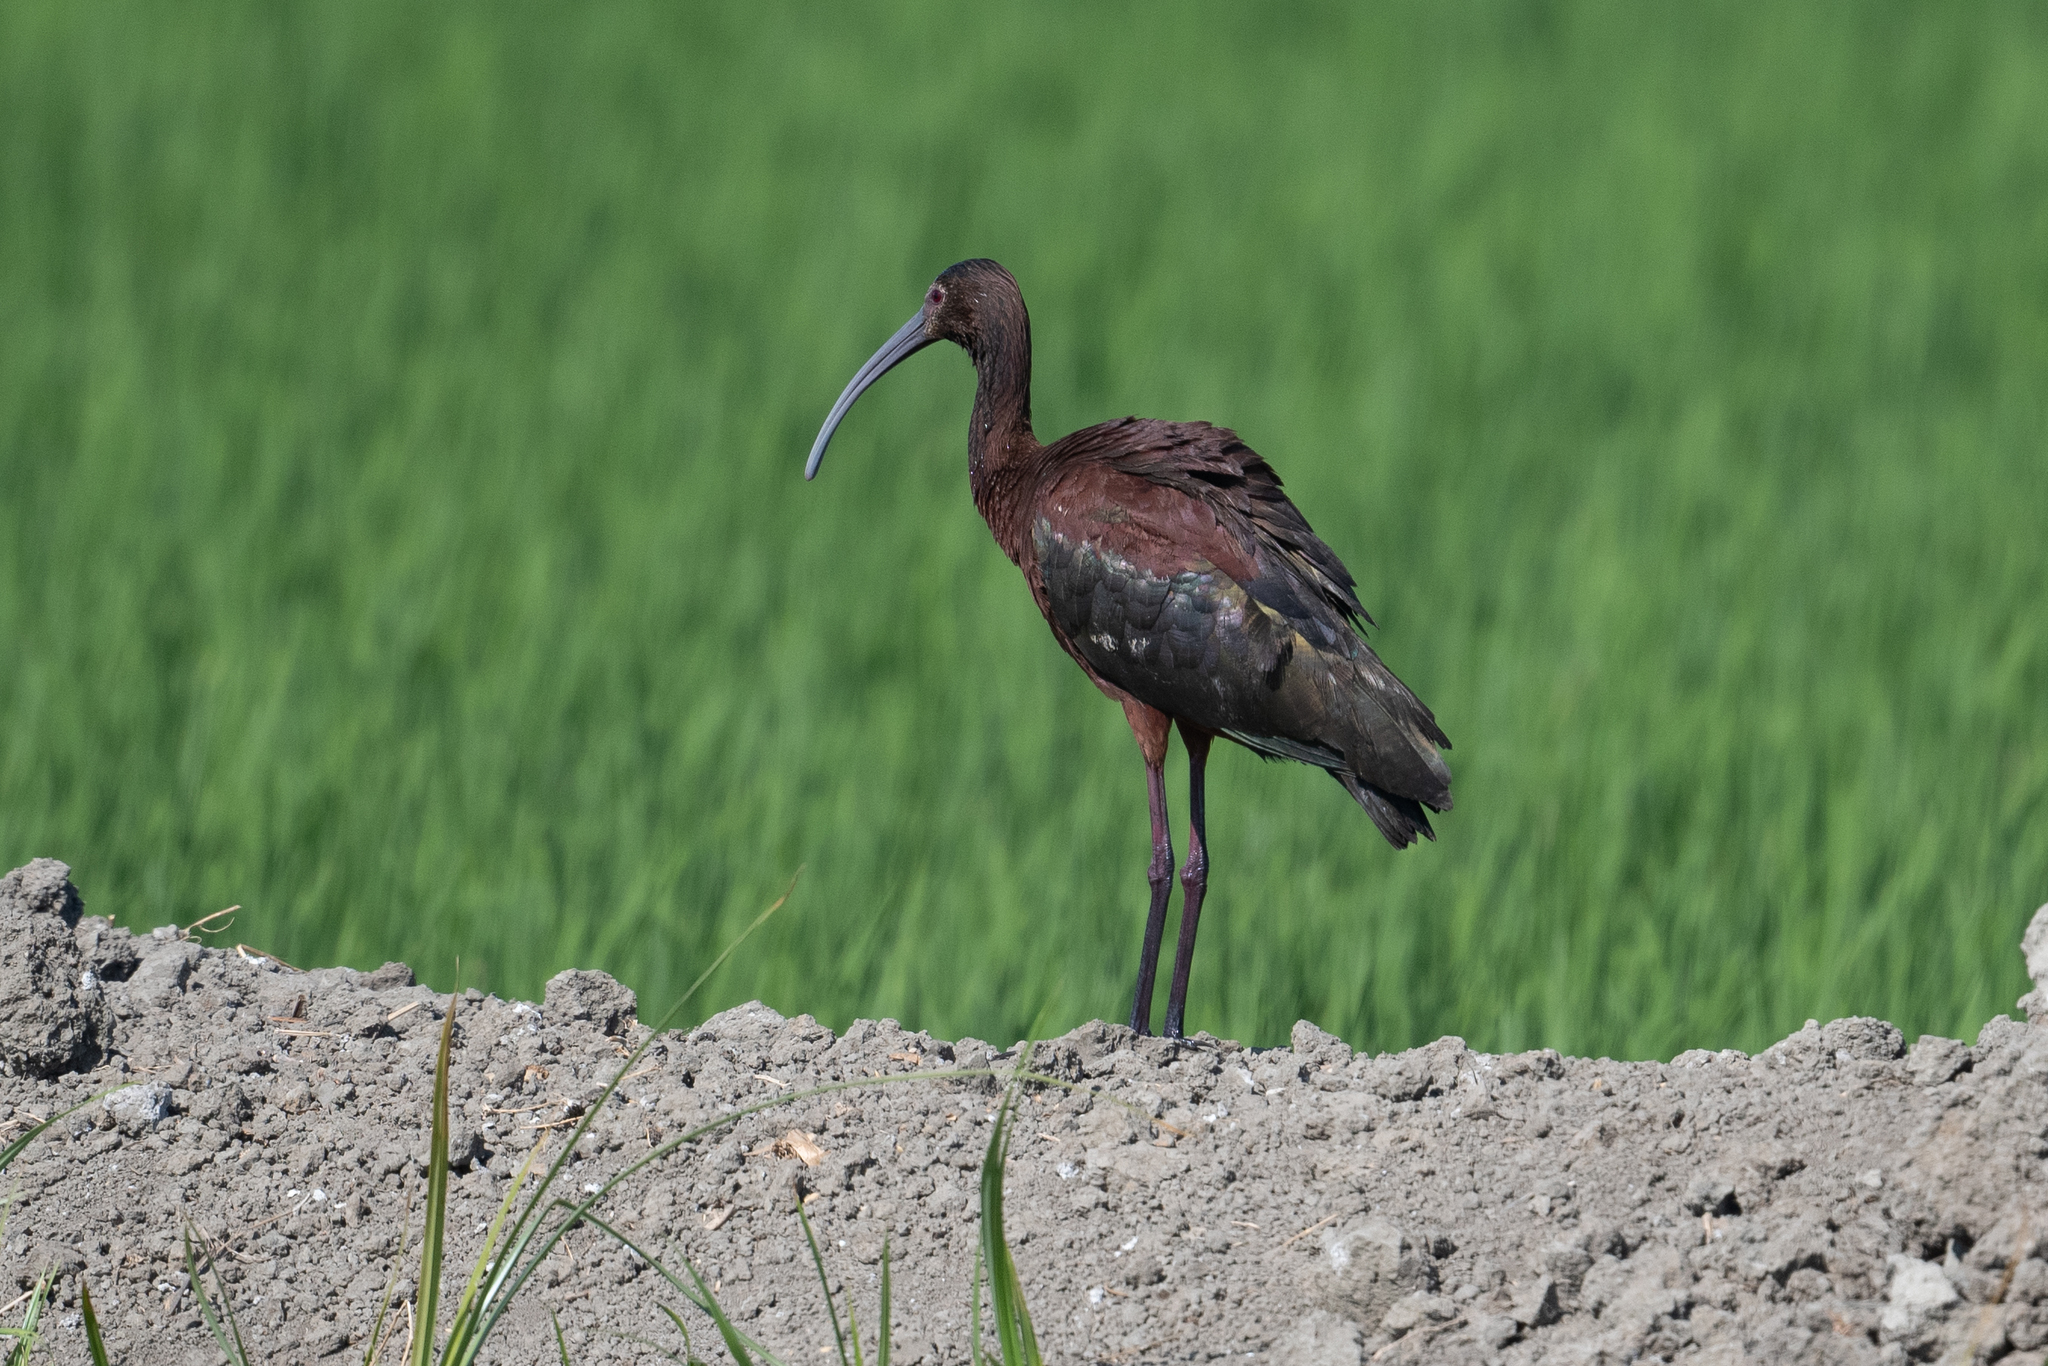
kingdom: Animalia
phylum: Chordata
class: Aves
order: Pelecaniformes
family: Threskiornithidae
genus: Plegadis
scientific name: Plegadis chihi
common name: White-faced ibis
